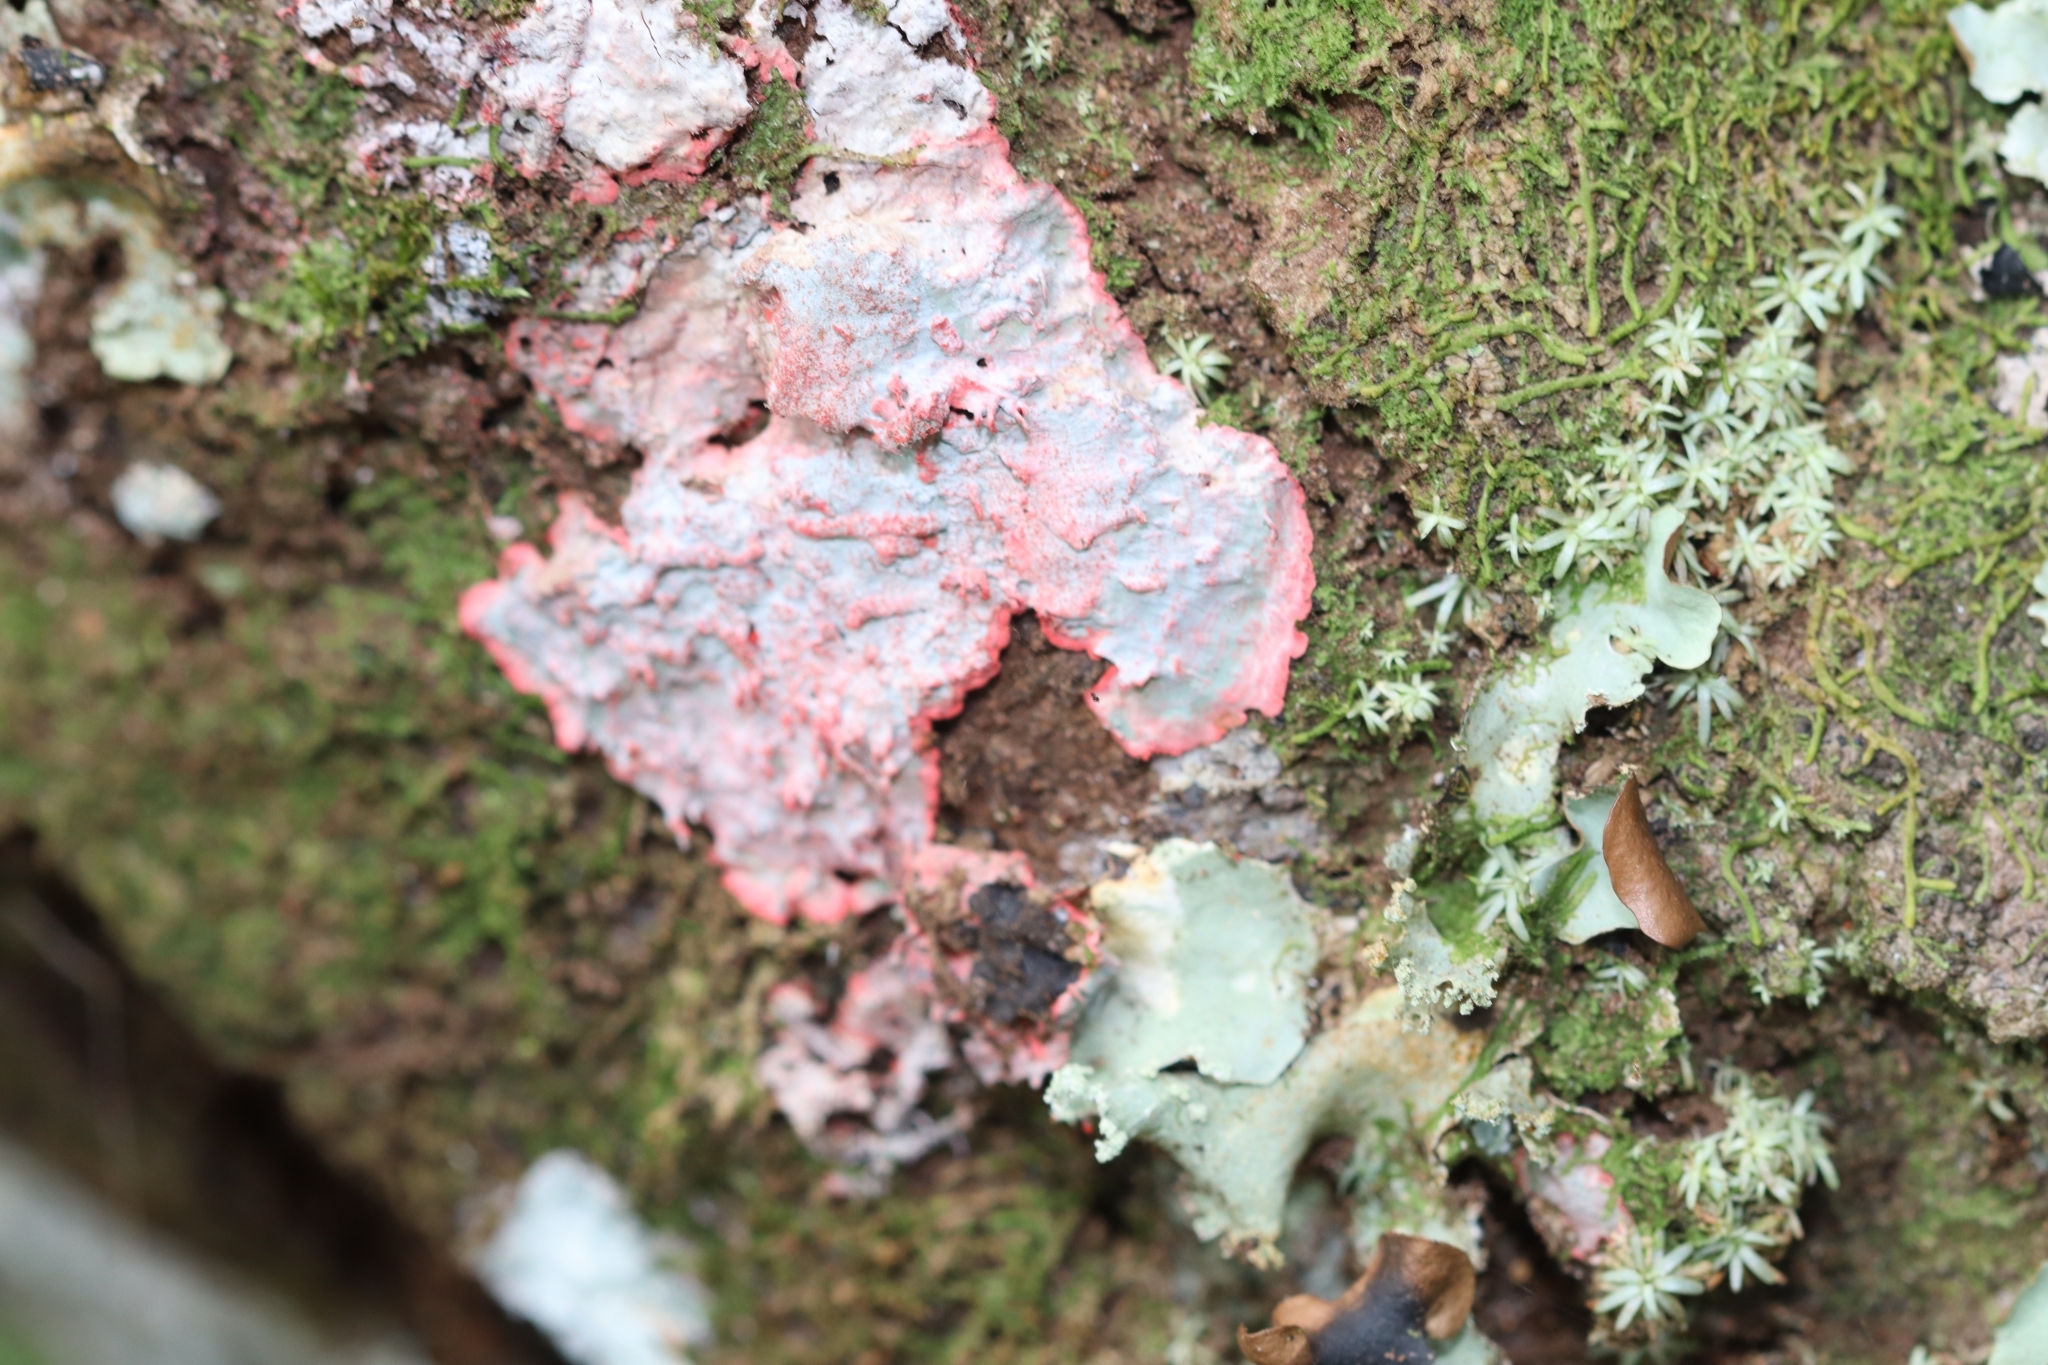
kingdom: Fungi
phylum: Ascomycota
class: Arthoniomycetes
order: Arthoniales
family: Arthoniaceae
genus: Herpothallon
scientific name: Herpothallon rubrocinctum
